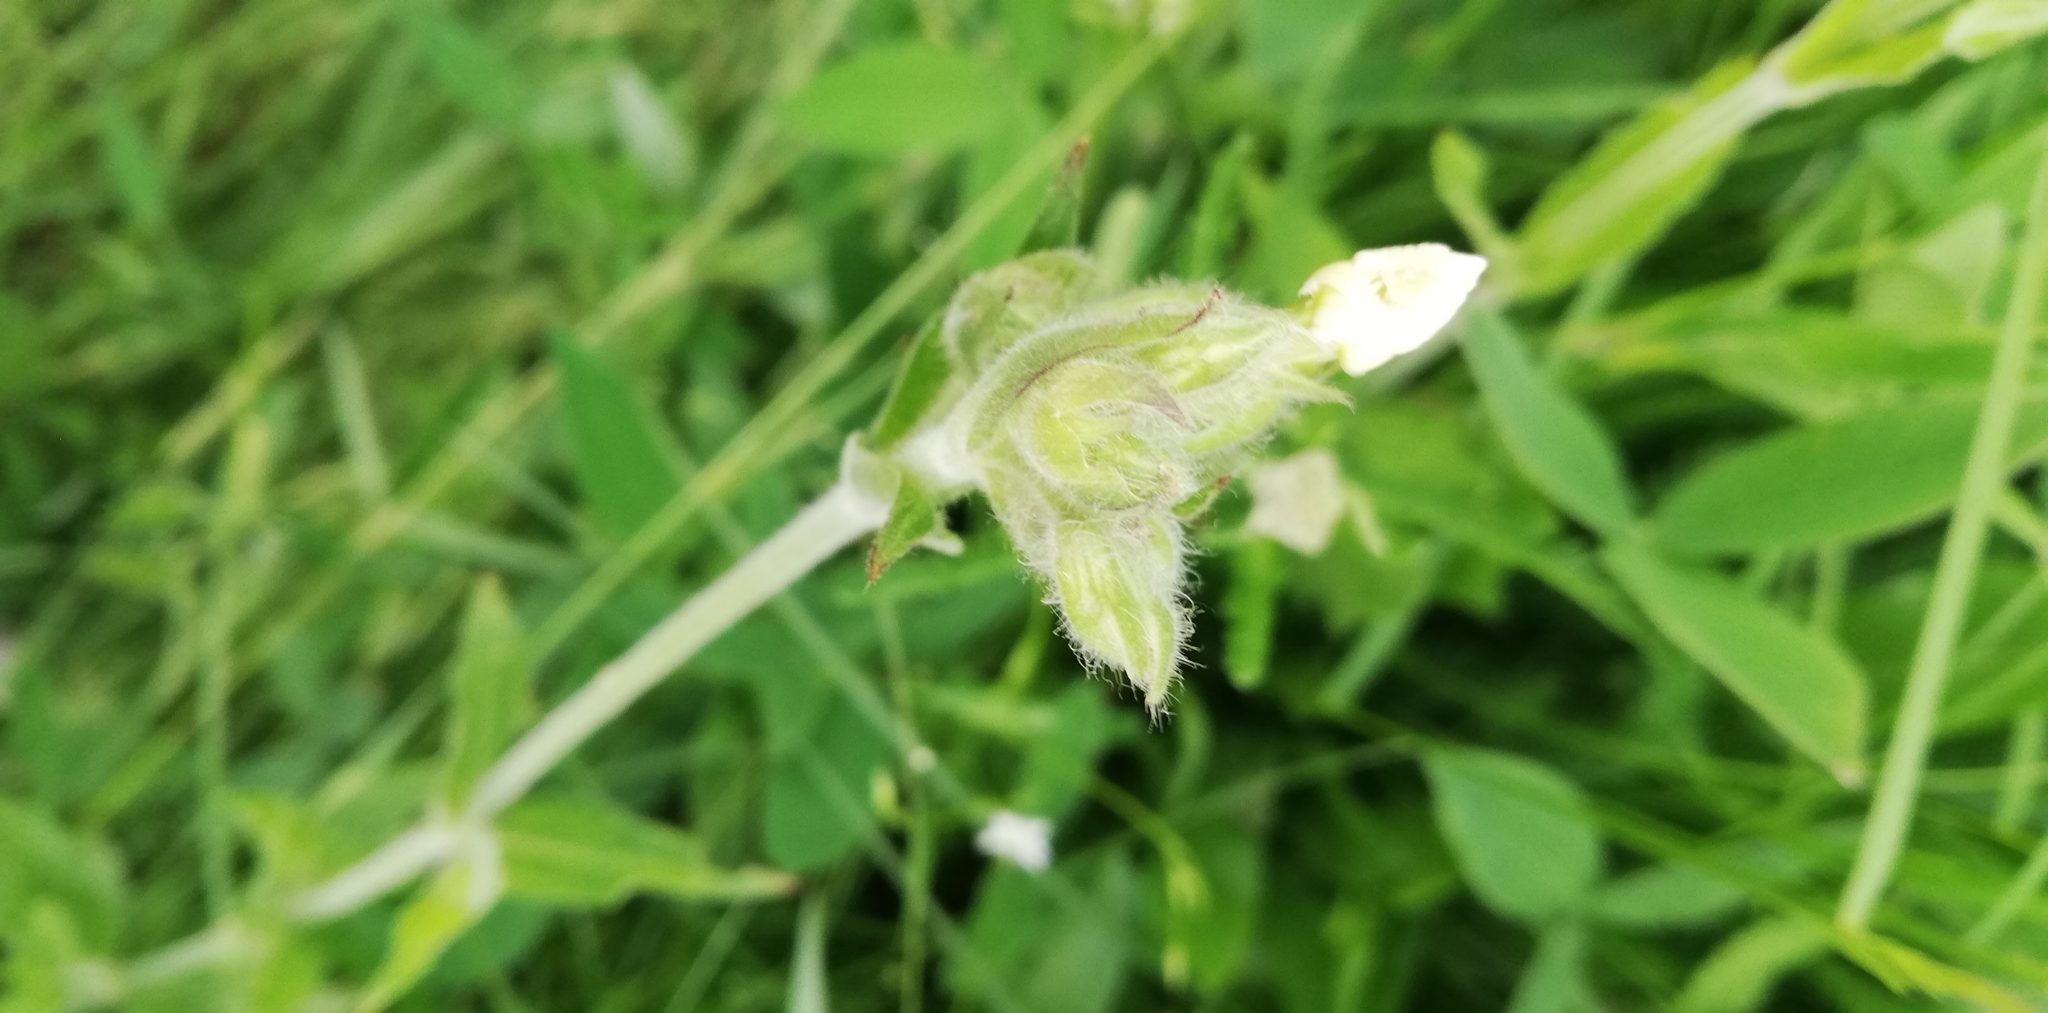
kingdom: Plantae
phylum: Tracheophyta
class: Magnoliopsida
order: Caryophyllales
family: Caryophyllaceae
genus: Silene
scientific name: Silene latifolia
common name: White campion
